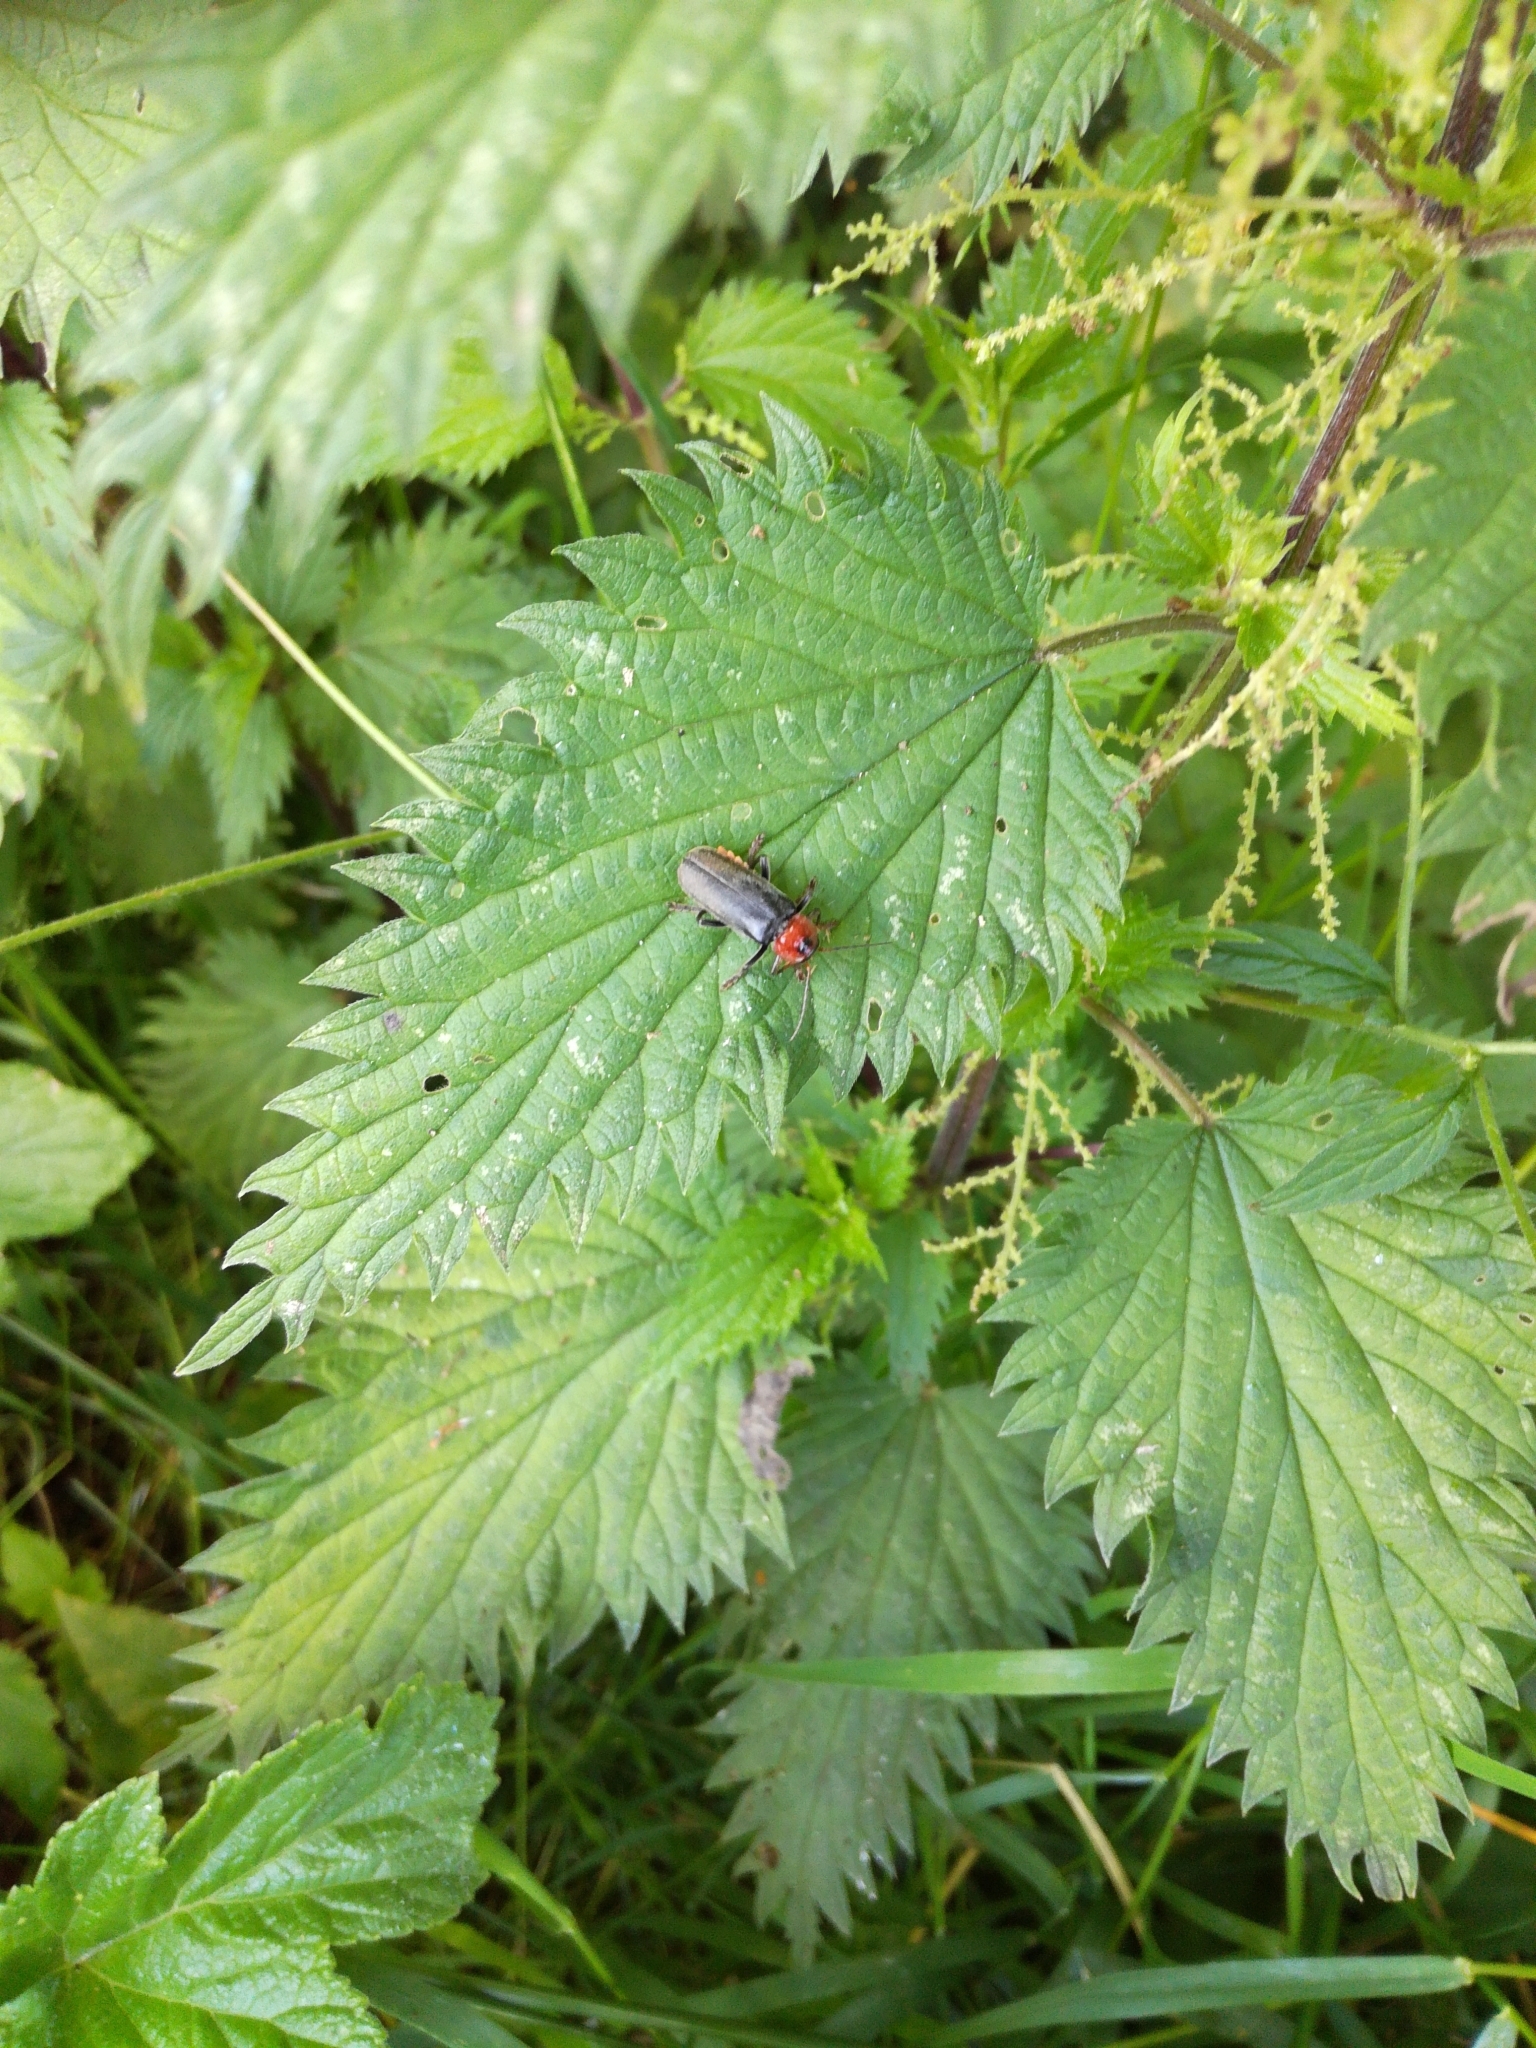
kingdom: Animalia
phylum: Arthropoda
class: Insecta
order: Coleoptera
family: Cantharidae
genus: Cantharis
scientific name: Cantharis fusca
